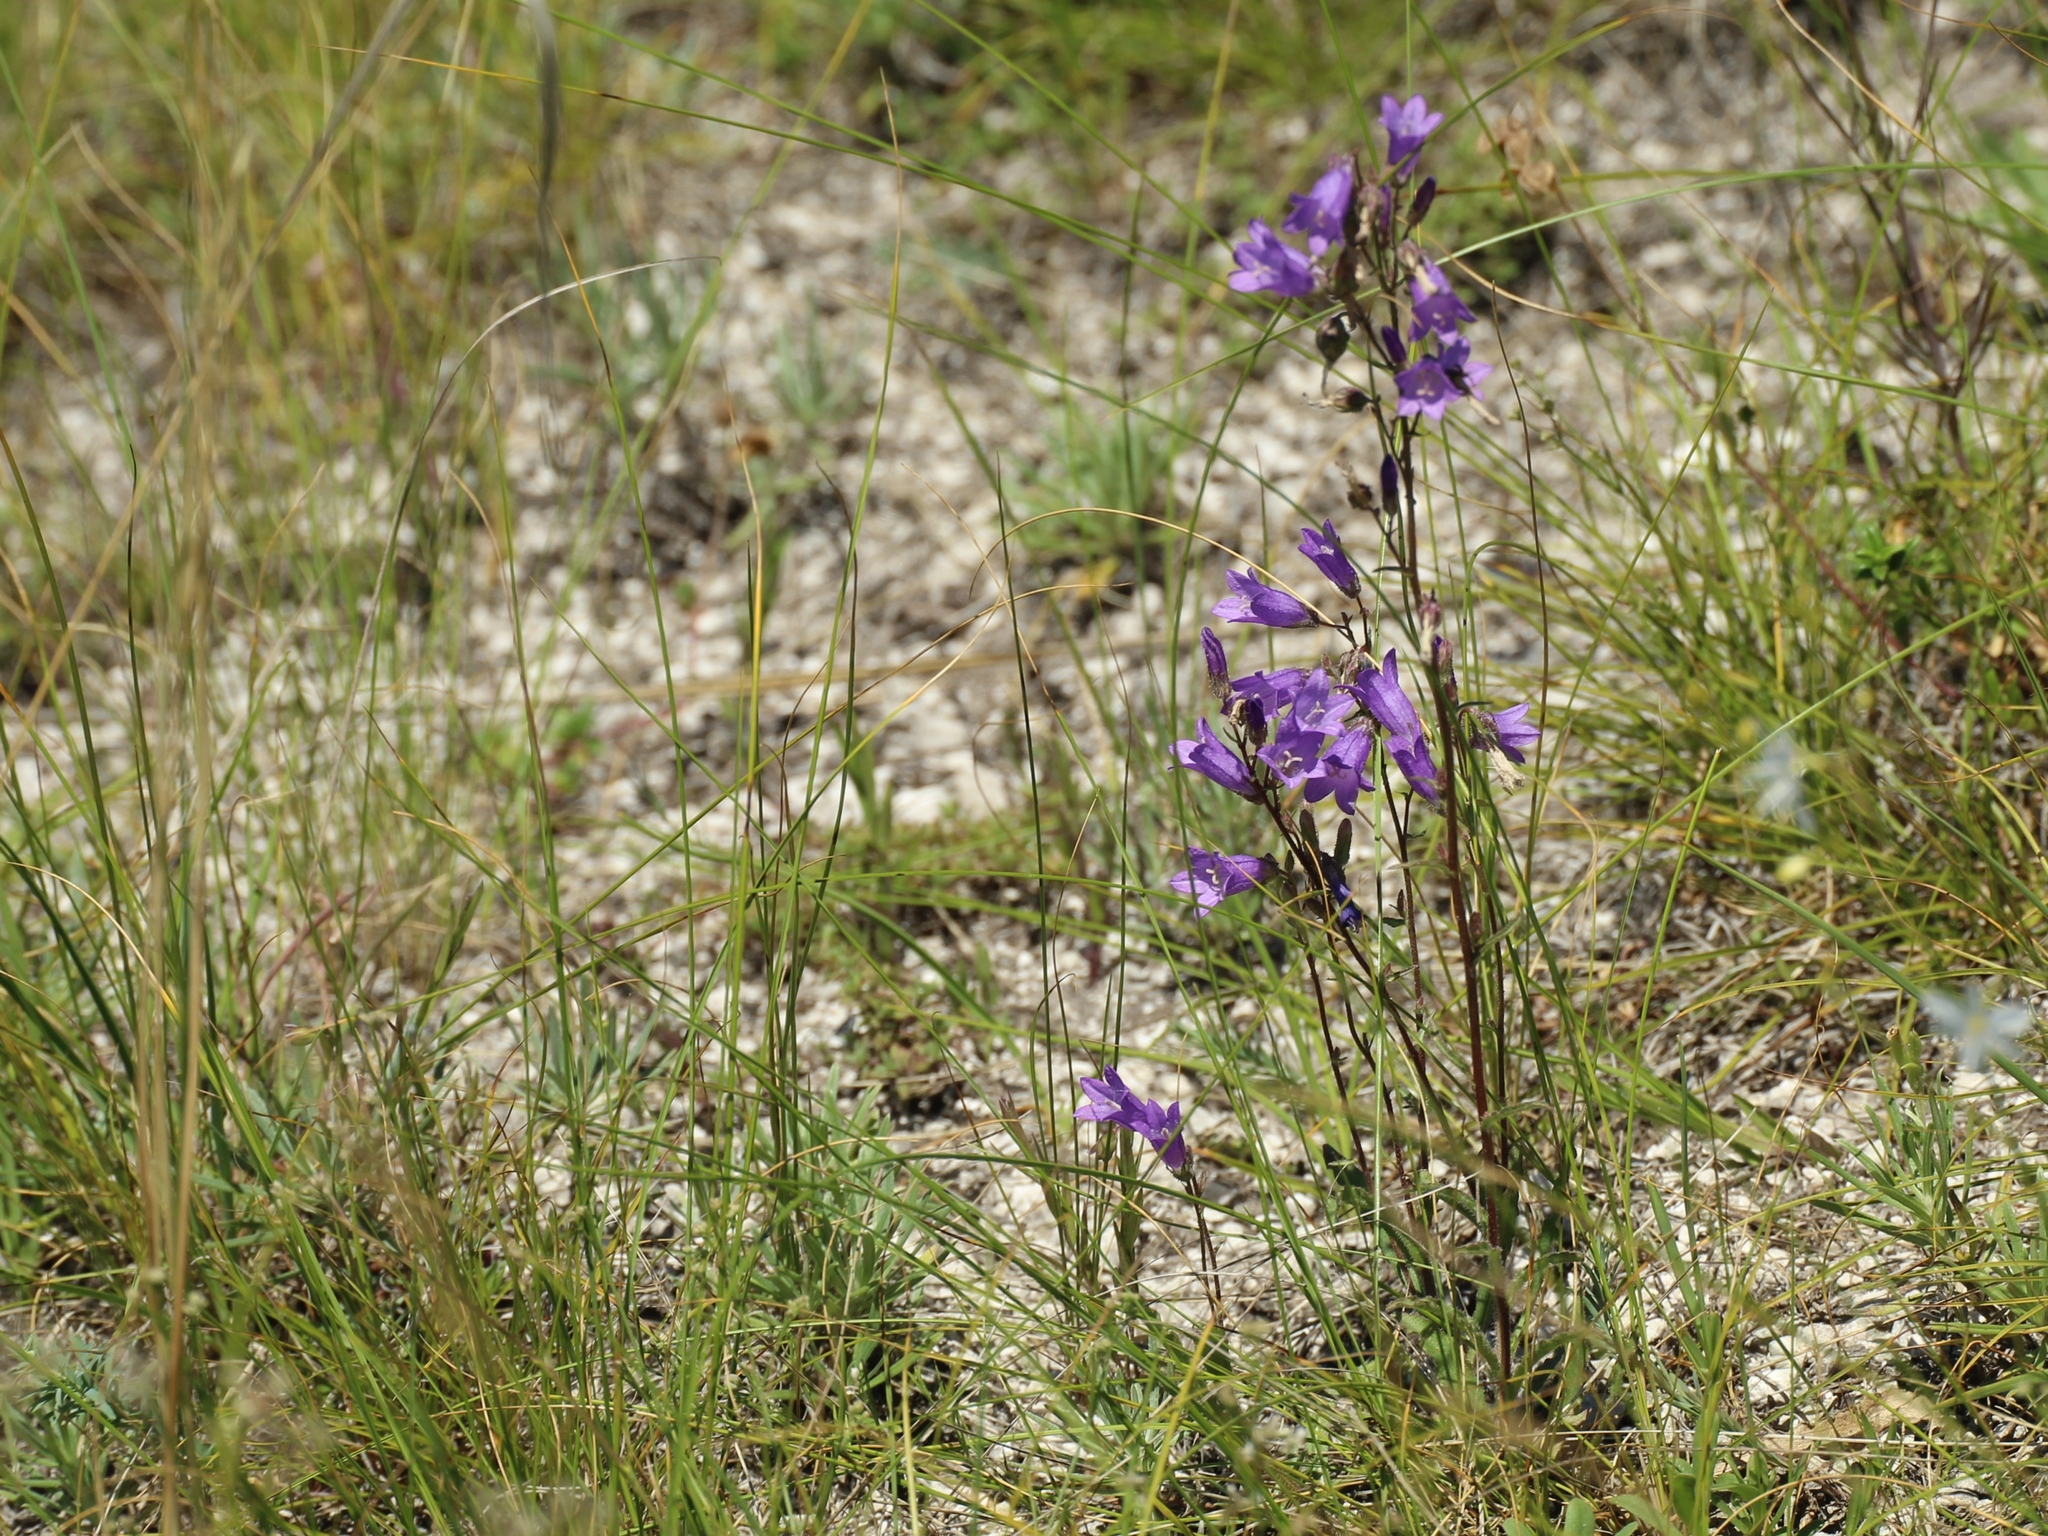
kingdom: Plantae
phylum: Tracheophyta
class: Magnoliopsida
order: Asterales
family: Campanulaceae
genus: Campanula
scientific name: Campanula sibirica
